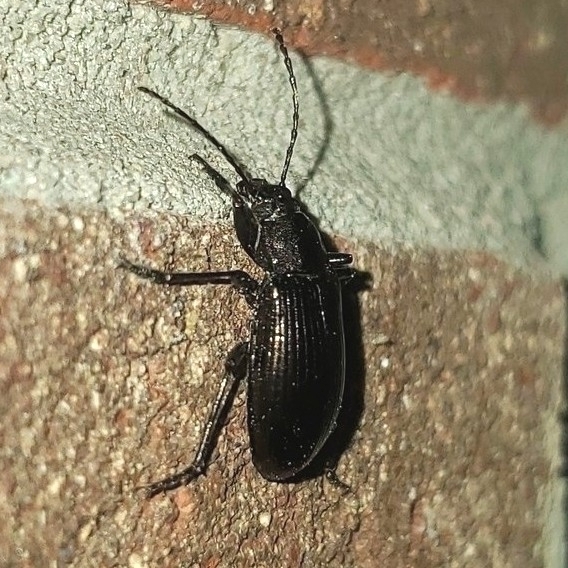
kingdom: Animalia
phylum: Arthropoda
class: Insecta
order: Coleoptera
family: Tenebrionidae
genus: Tarpela
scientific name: Tarpela micans
